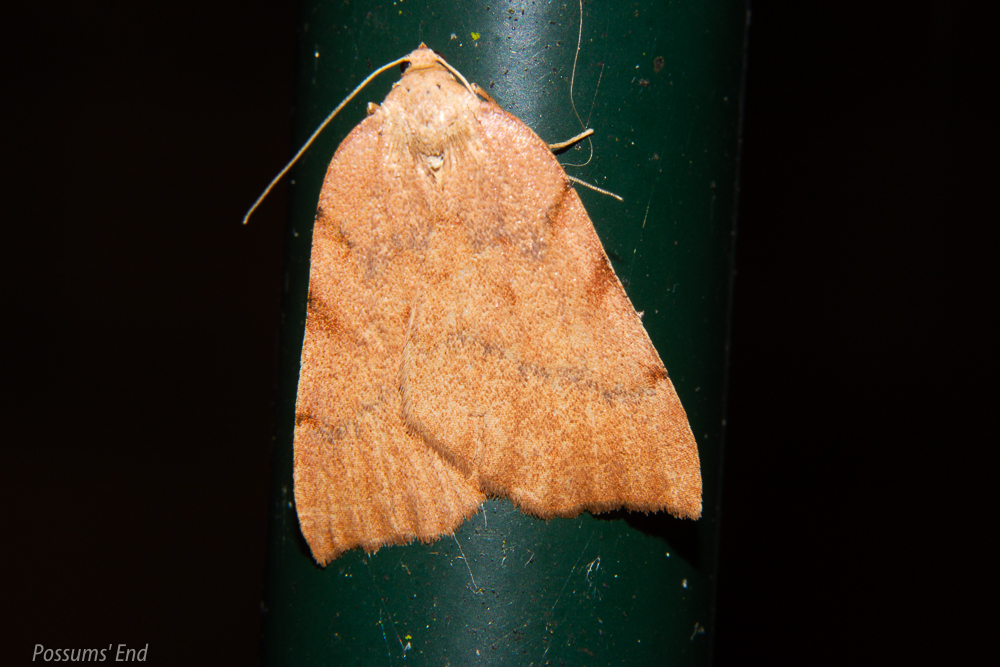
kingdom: Animalia
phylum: Arthropoda
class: Insecta
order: Lepidoptera
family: Geometridae
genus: Sestra
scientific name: Sestra humeraria
